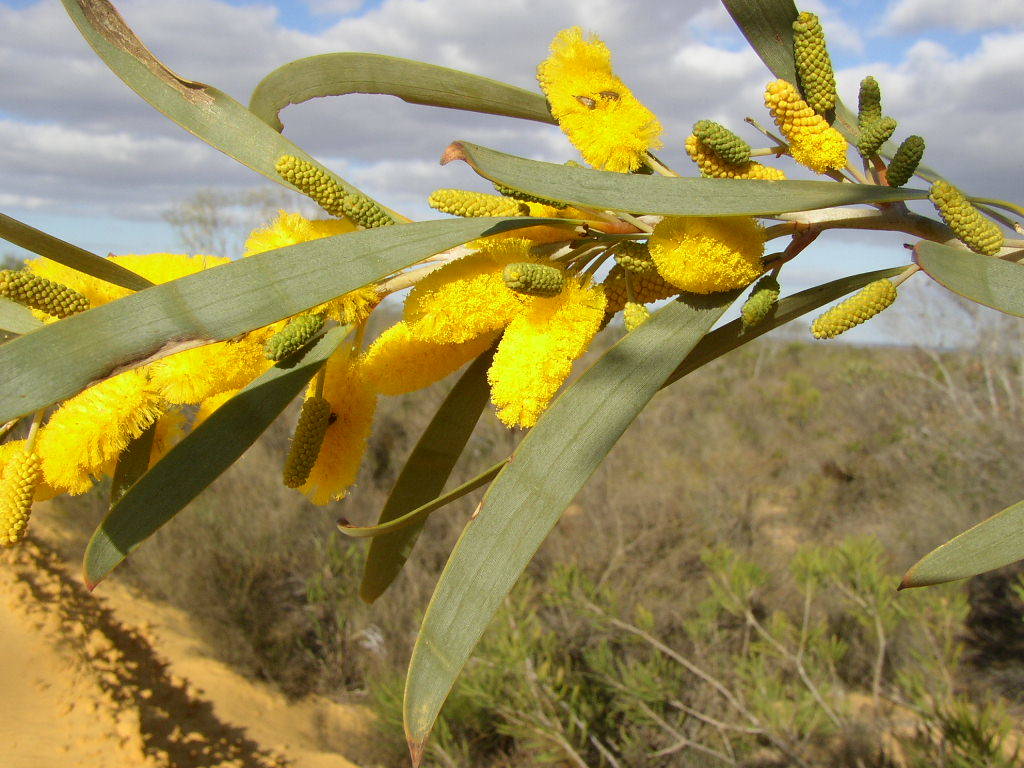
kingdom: Plantae
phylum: Tracheophyta
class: Magnoliopsida
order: Fabales
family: Fabaceae
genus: Acacia
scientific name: Acacia signata
